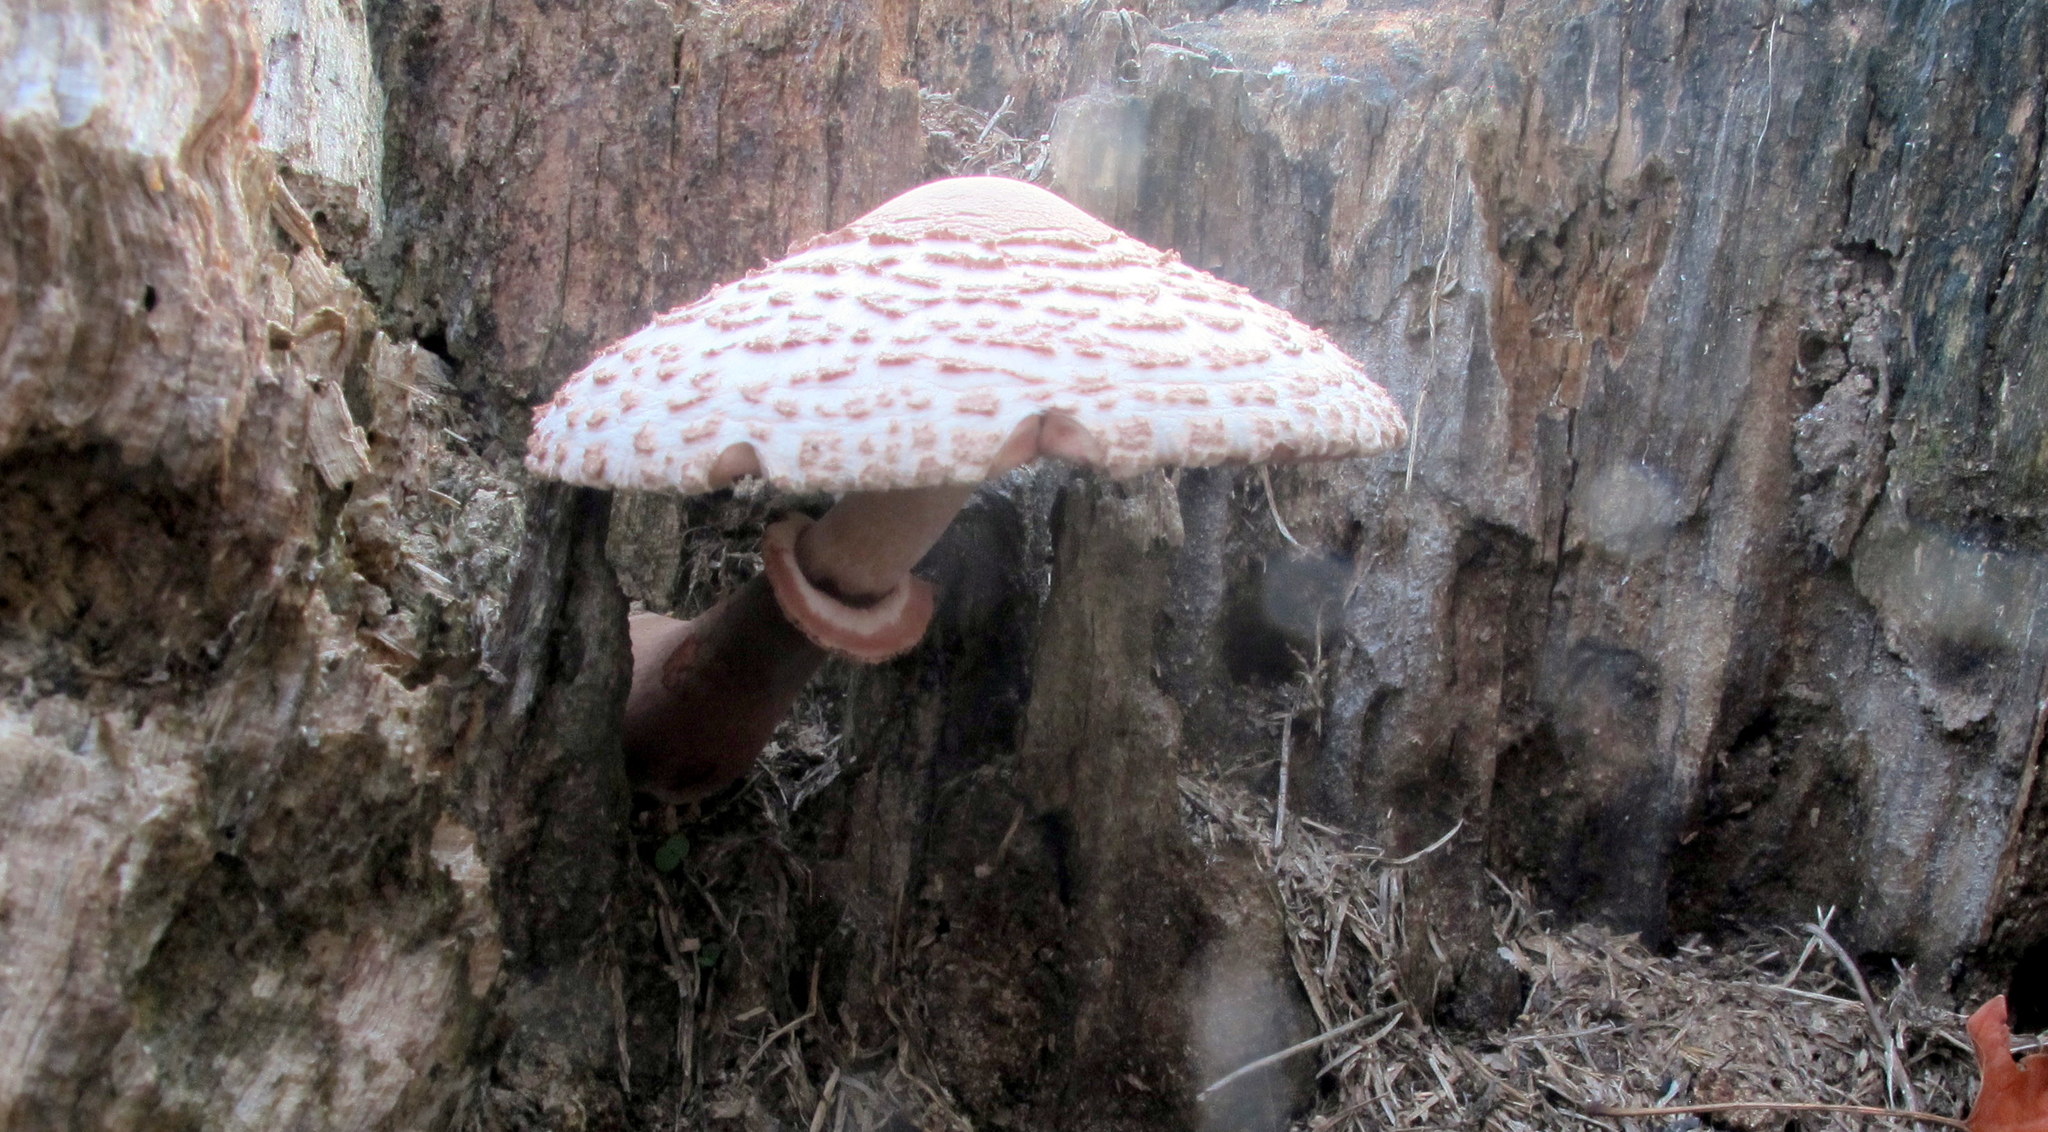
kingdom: Fungi
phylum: Basidiomycota
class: Agaricomycetes
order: Agaricales
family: Agaricaceae
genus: Leucoagaricus
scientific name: Leucoagaricus americanus
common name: Reddening lepiota
